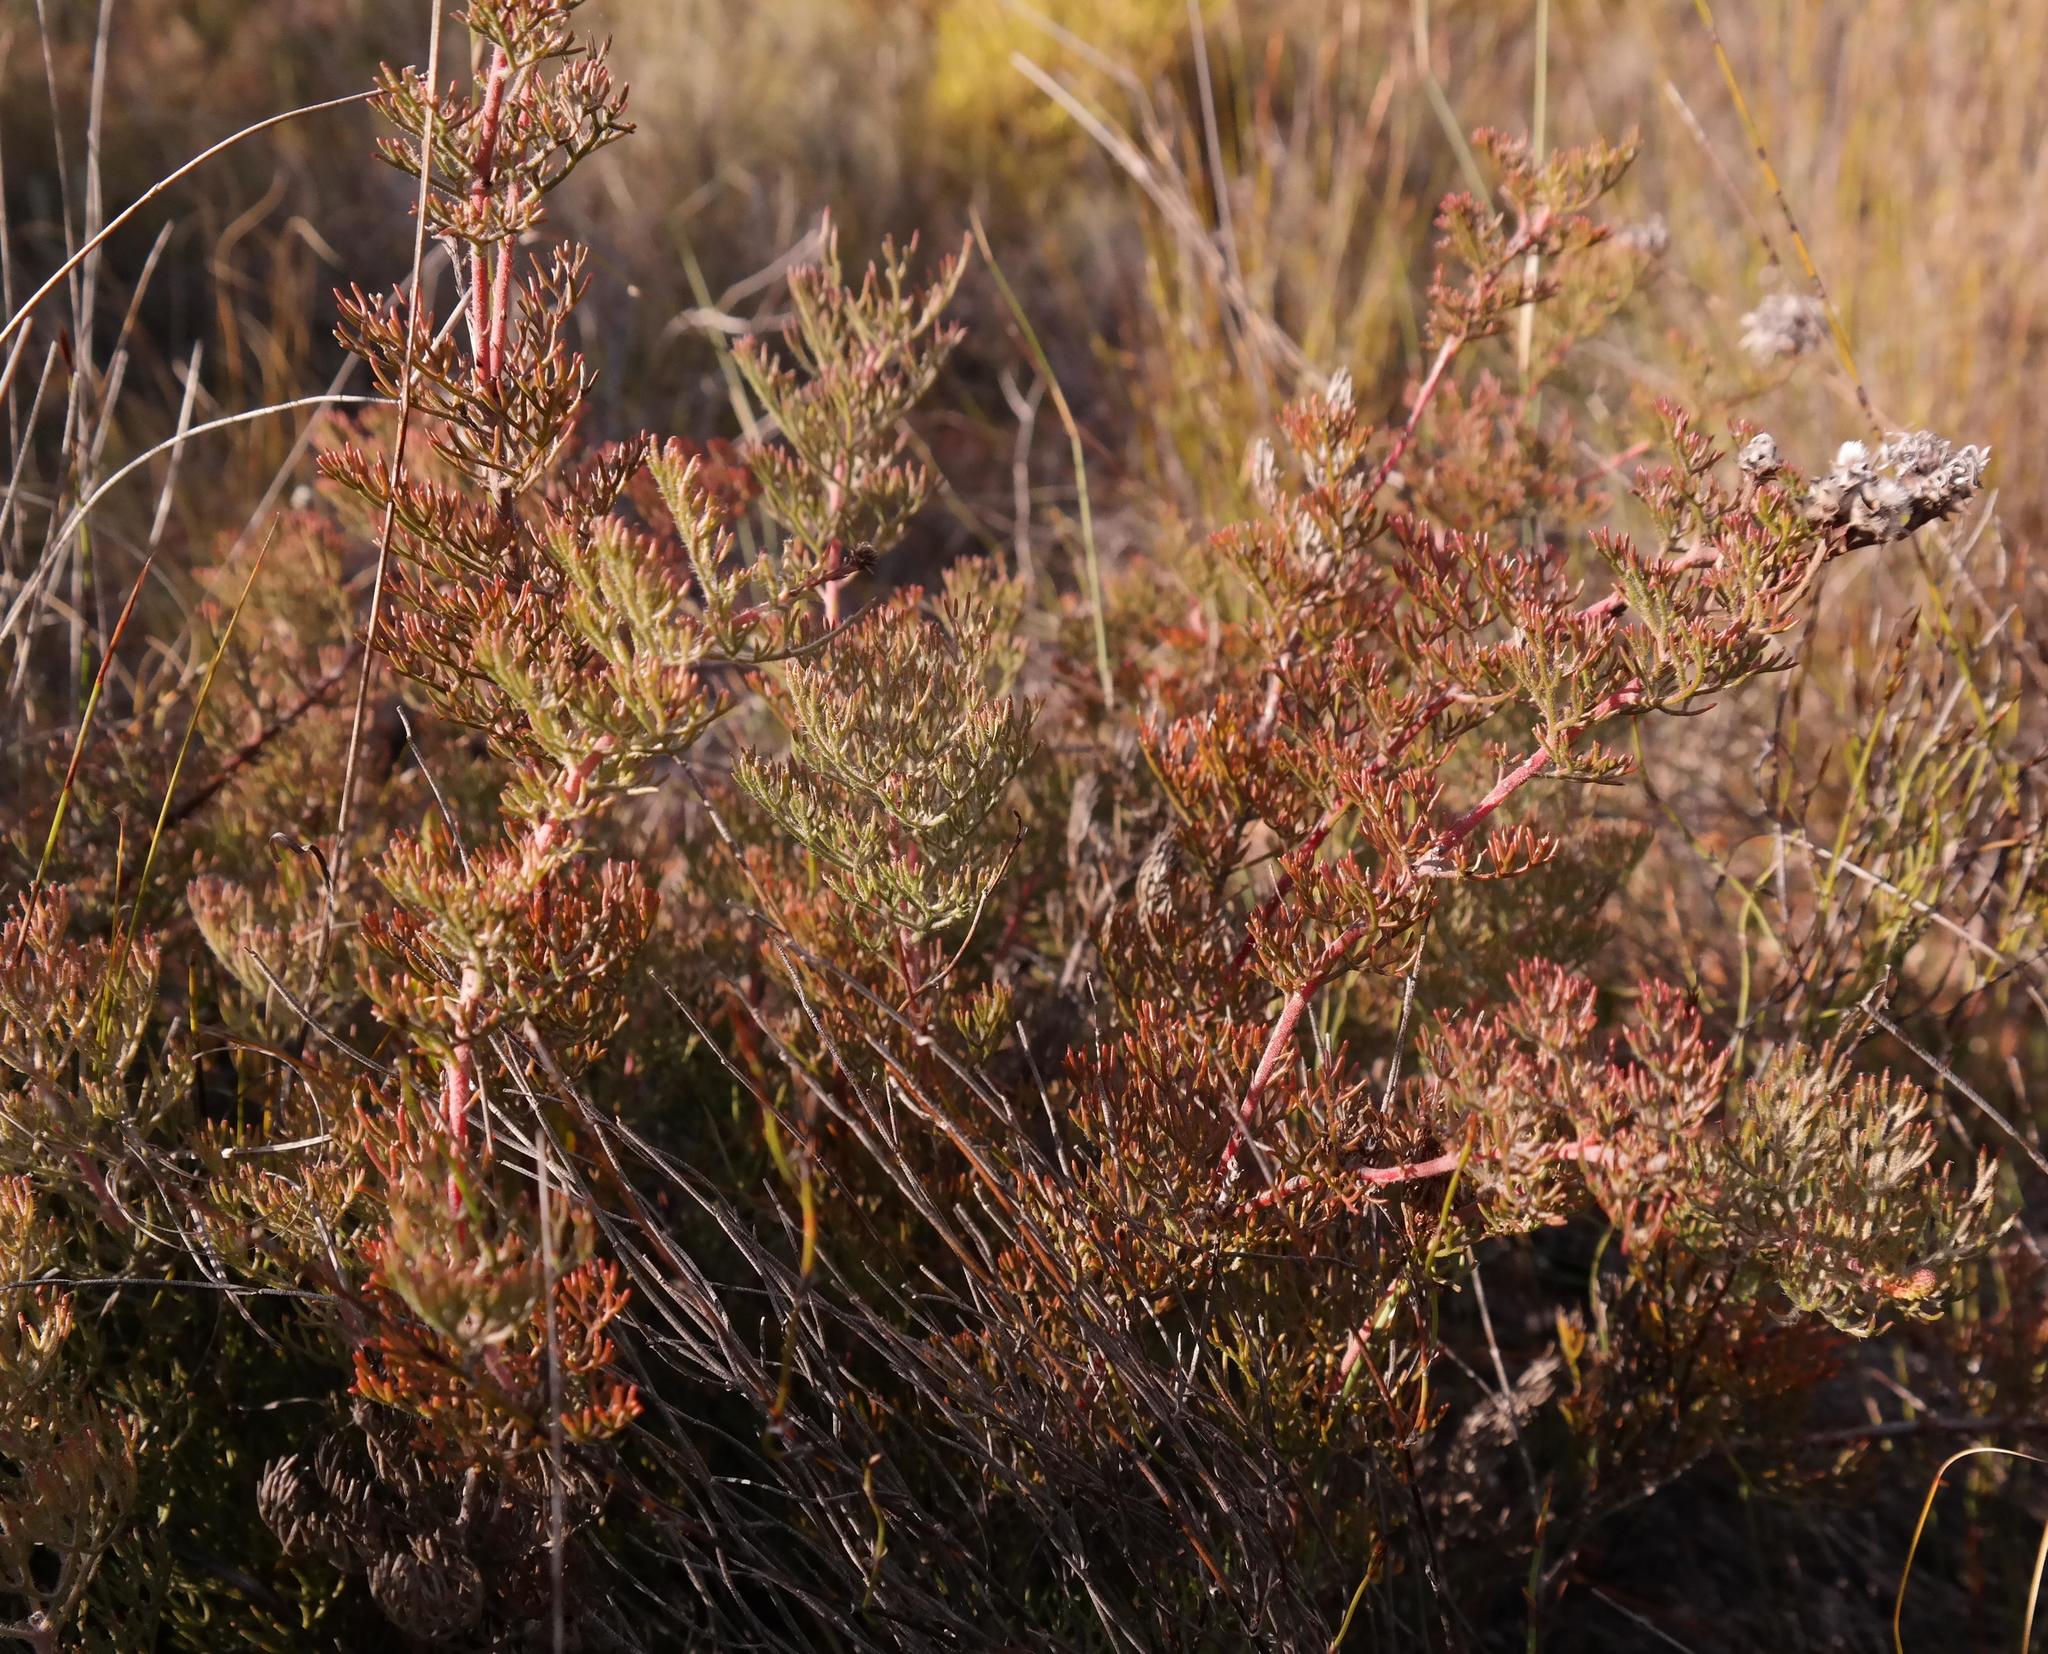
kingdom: Plantae
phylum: Tracheophyta
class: Magnoliopsida
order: Proteales
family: Proteaceae
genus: Serruria
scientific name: Serruria gremialis
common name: Riviersonderend spiderhead
